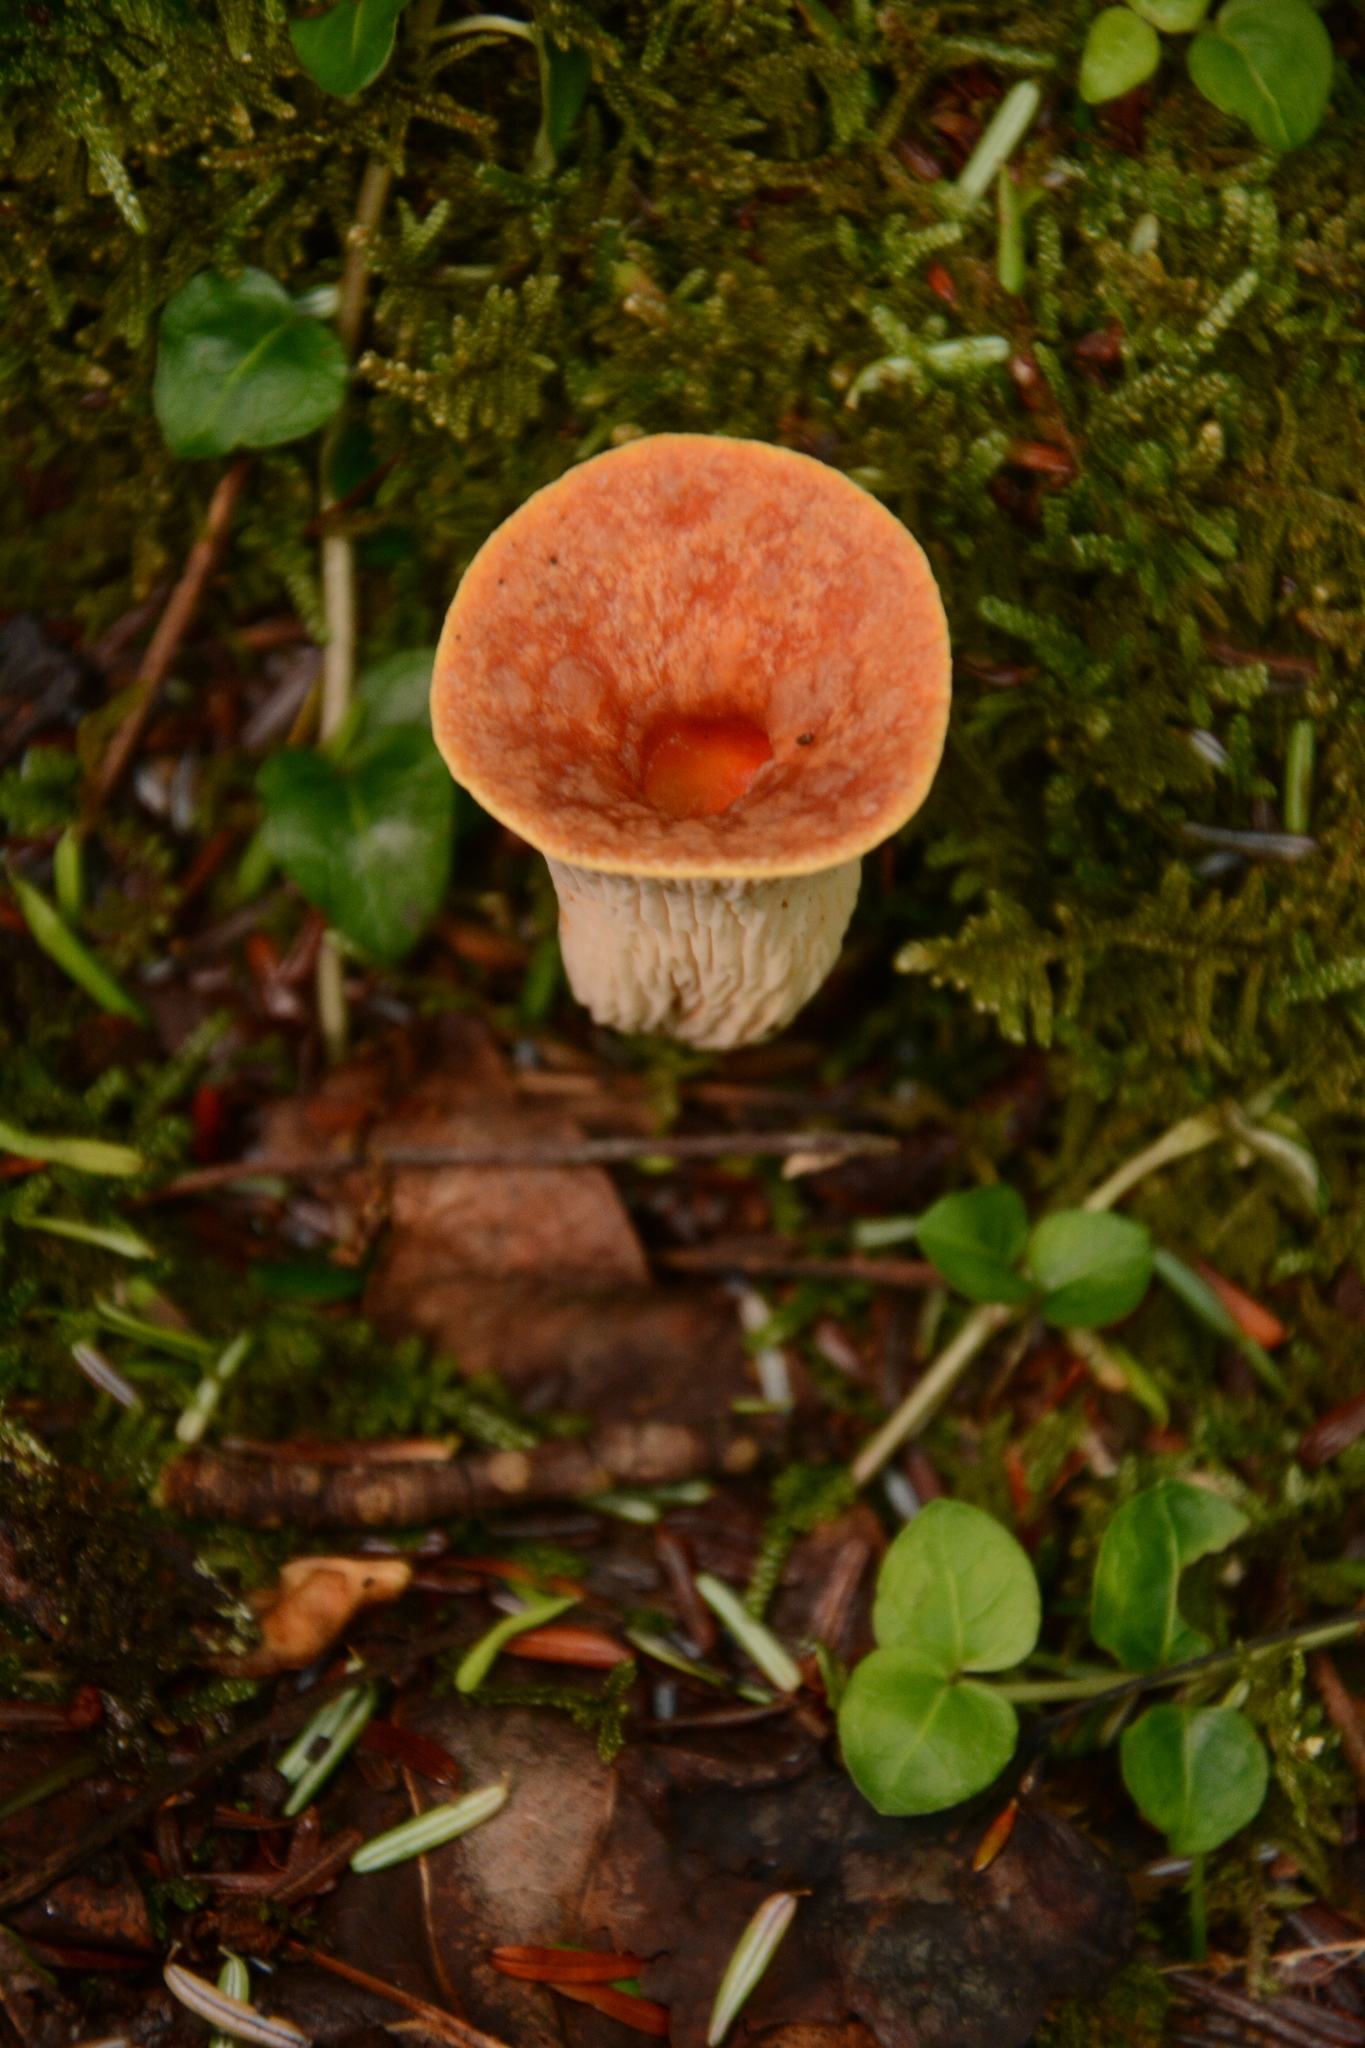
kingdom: Fungi
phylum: Basidiomycota
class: Agaricomycetes
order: Gomphales
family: Gomphaceae
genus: Turbinellus
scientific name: Turbinellus floccosus
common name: Scaly chanterelle
